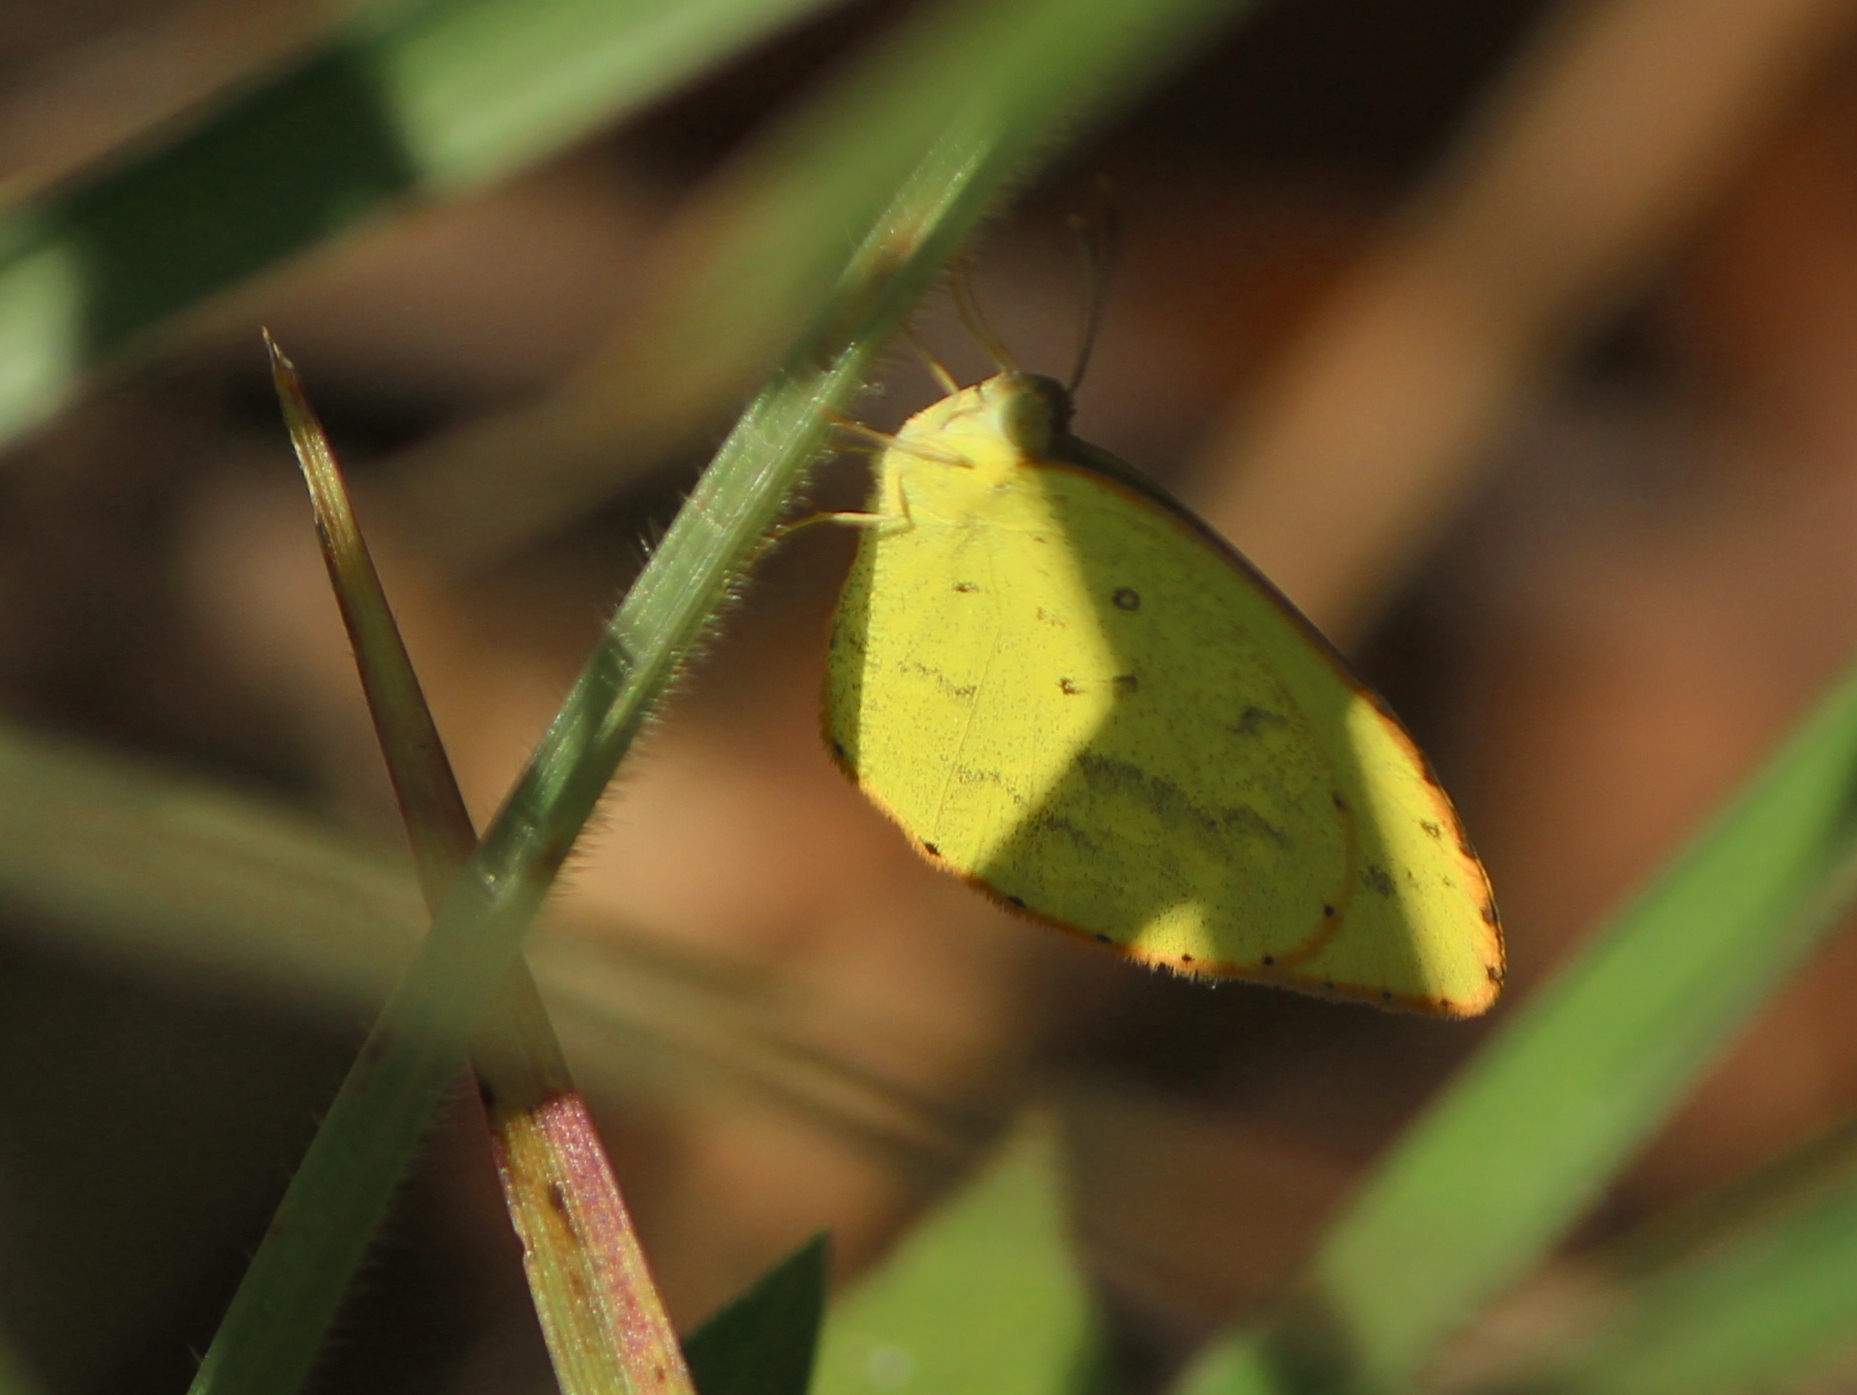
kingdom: Animalia
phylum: Arthropoda
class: Insecta
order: Lepidoptera
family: Pieridae
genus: Eurema
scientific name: Eurema brigitta
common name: Small grass yellow
